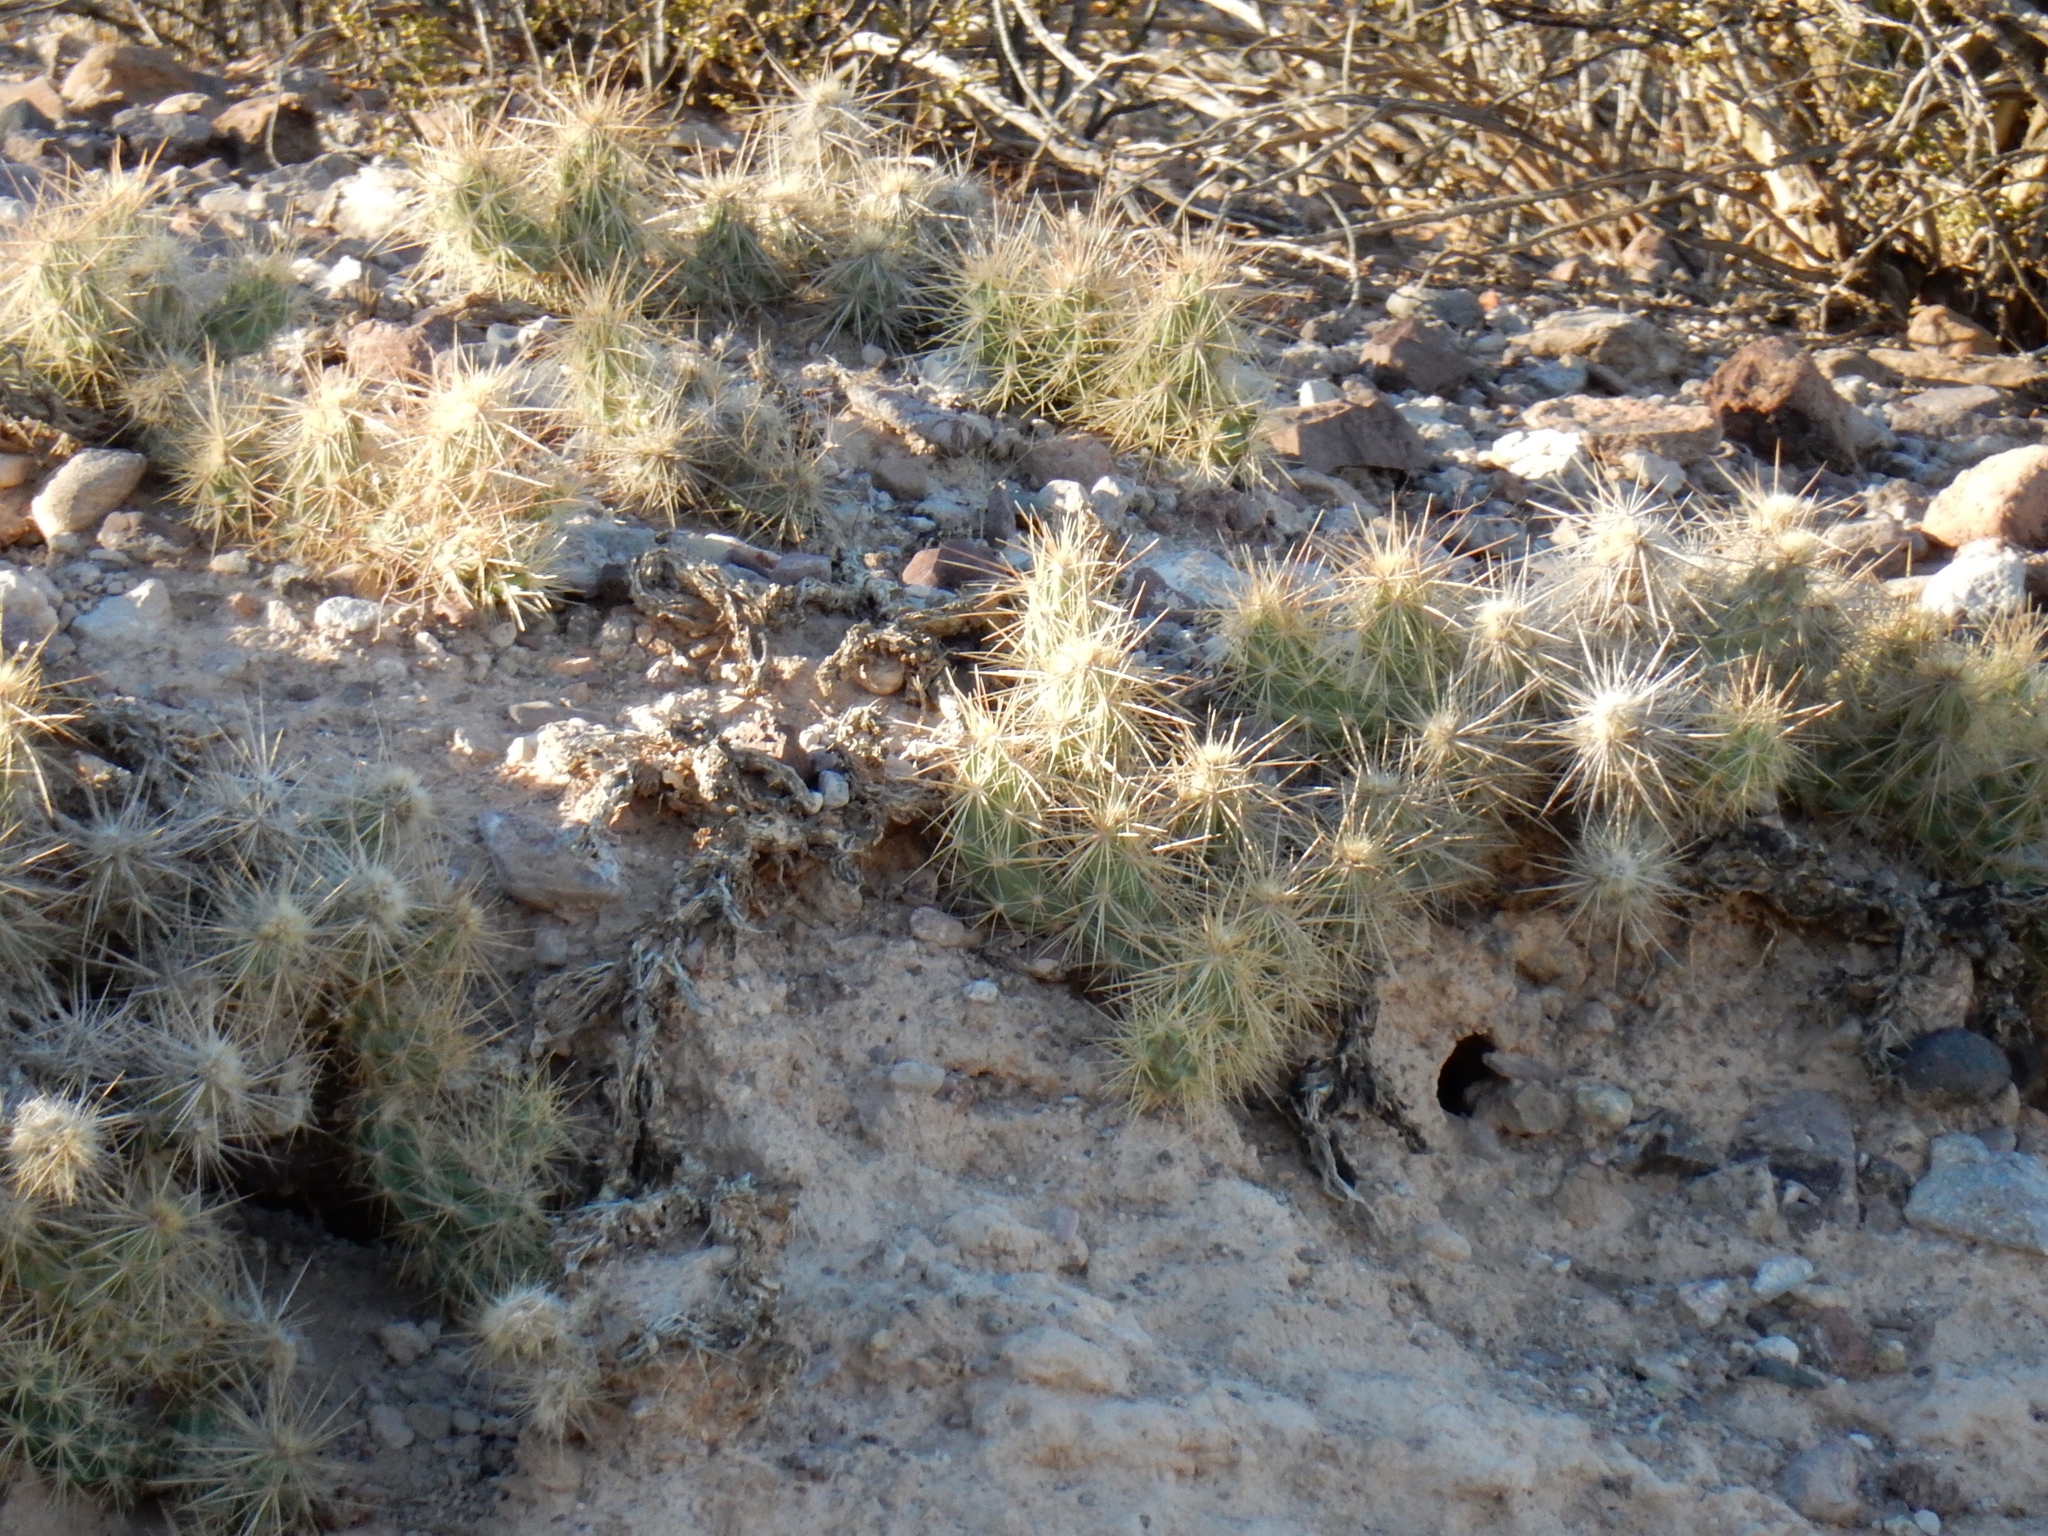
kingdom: Plantae
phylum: Tracheophyta
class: Magnoliopsida
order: Caryophyllales
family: Cactaceae
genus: Grusonia
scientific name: Grusonia emoryi
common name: Stanly's club cholla
